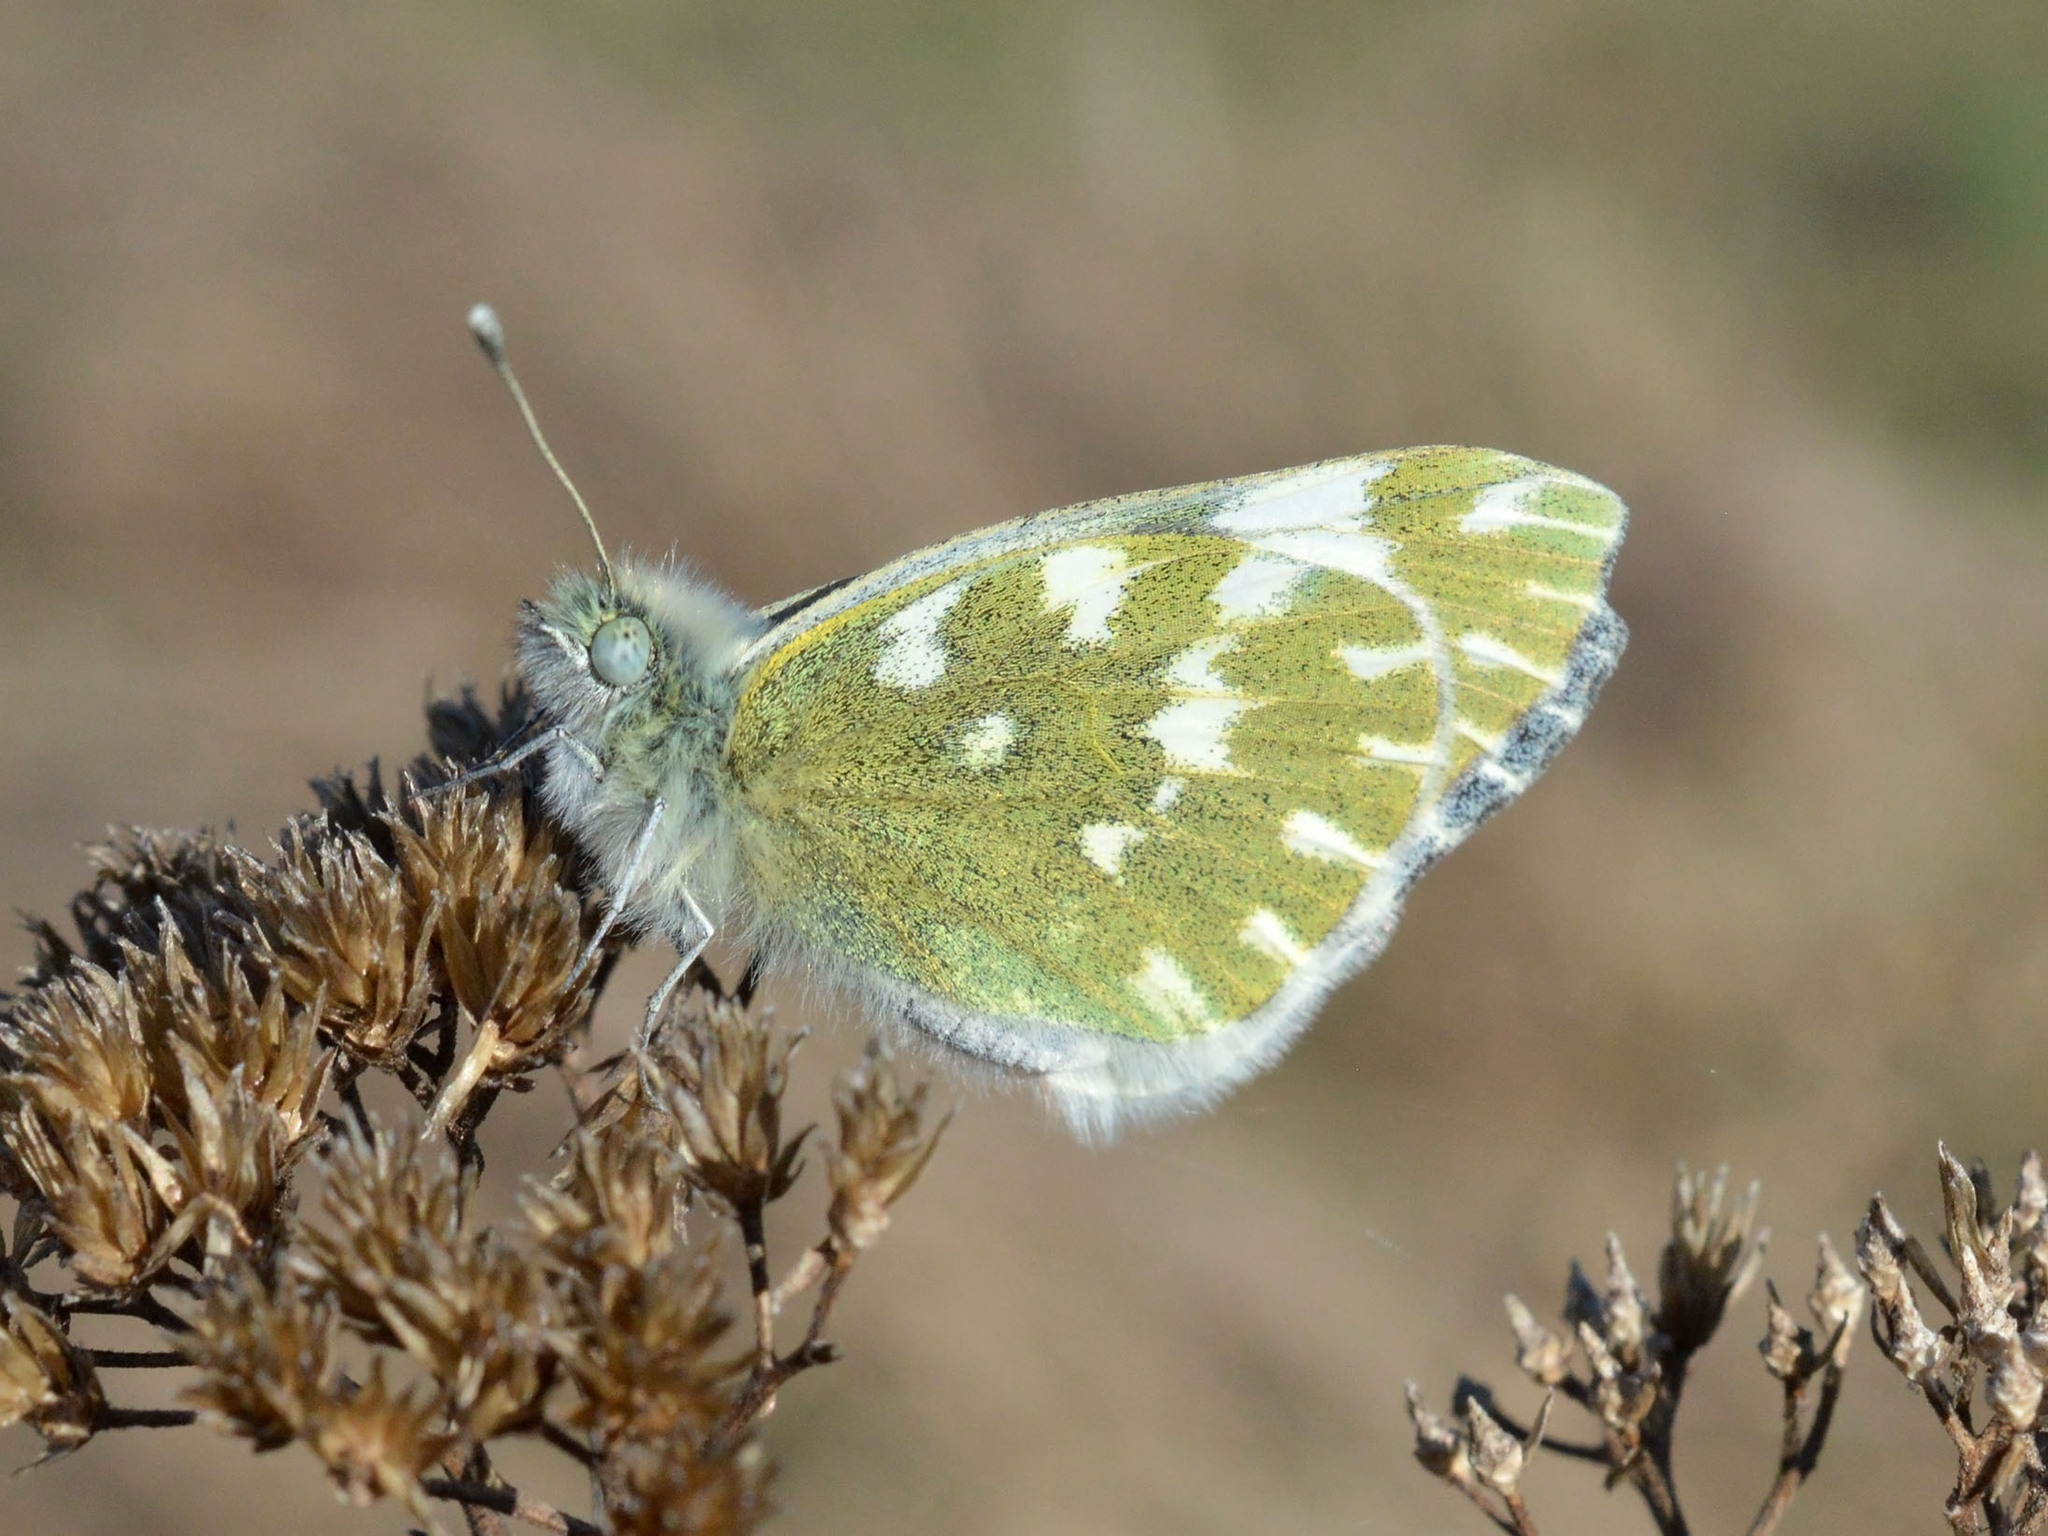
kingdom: Animalia
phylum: Arthropoda
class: Insecta
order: Lepidoptera
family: Pieridae
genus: Pontia
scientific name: Pontia edusa
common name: Eastern bath white
